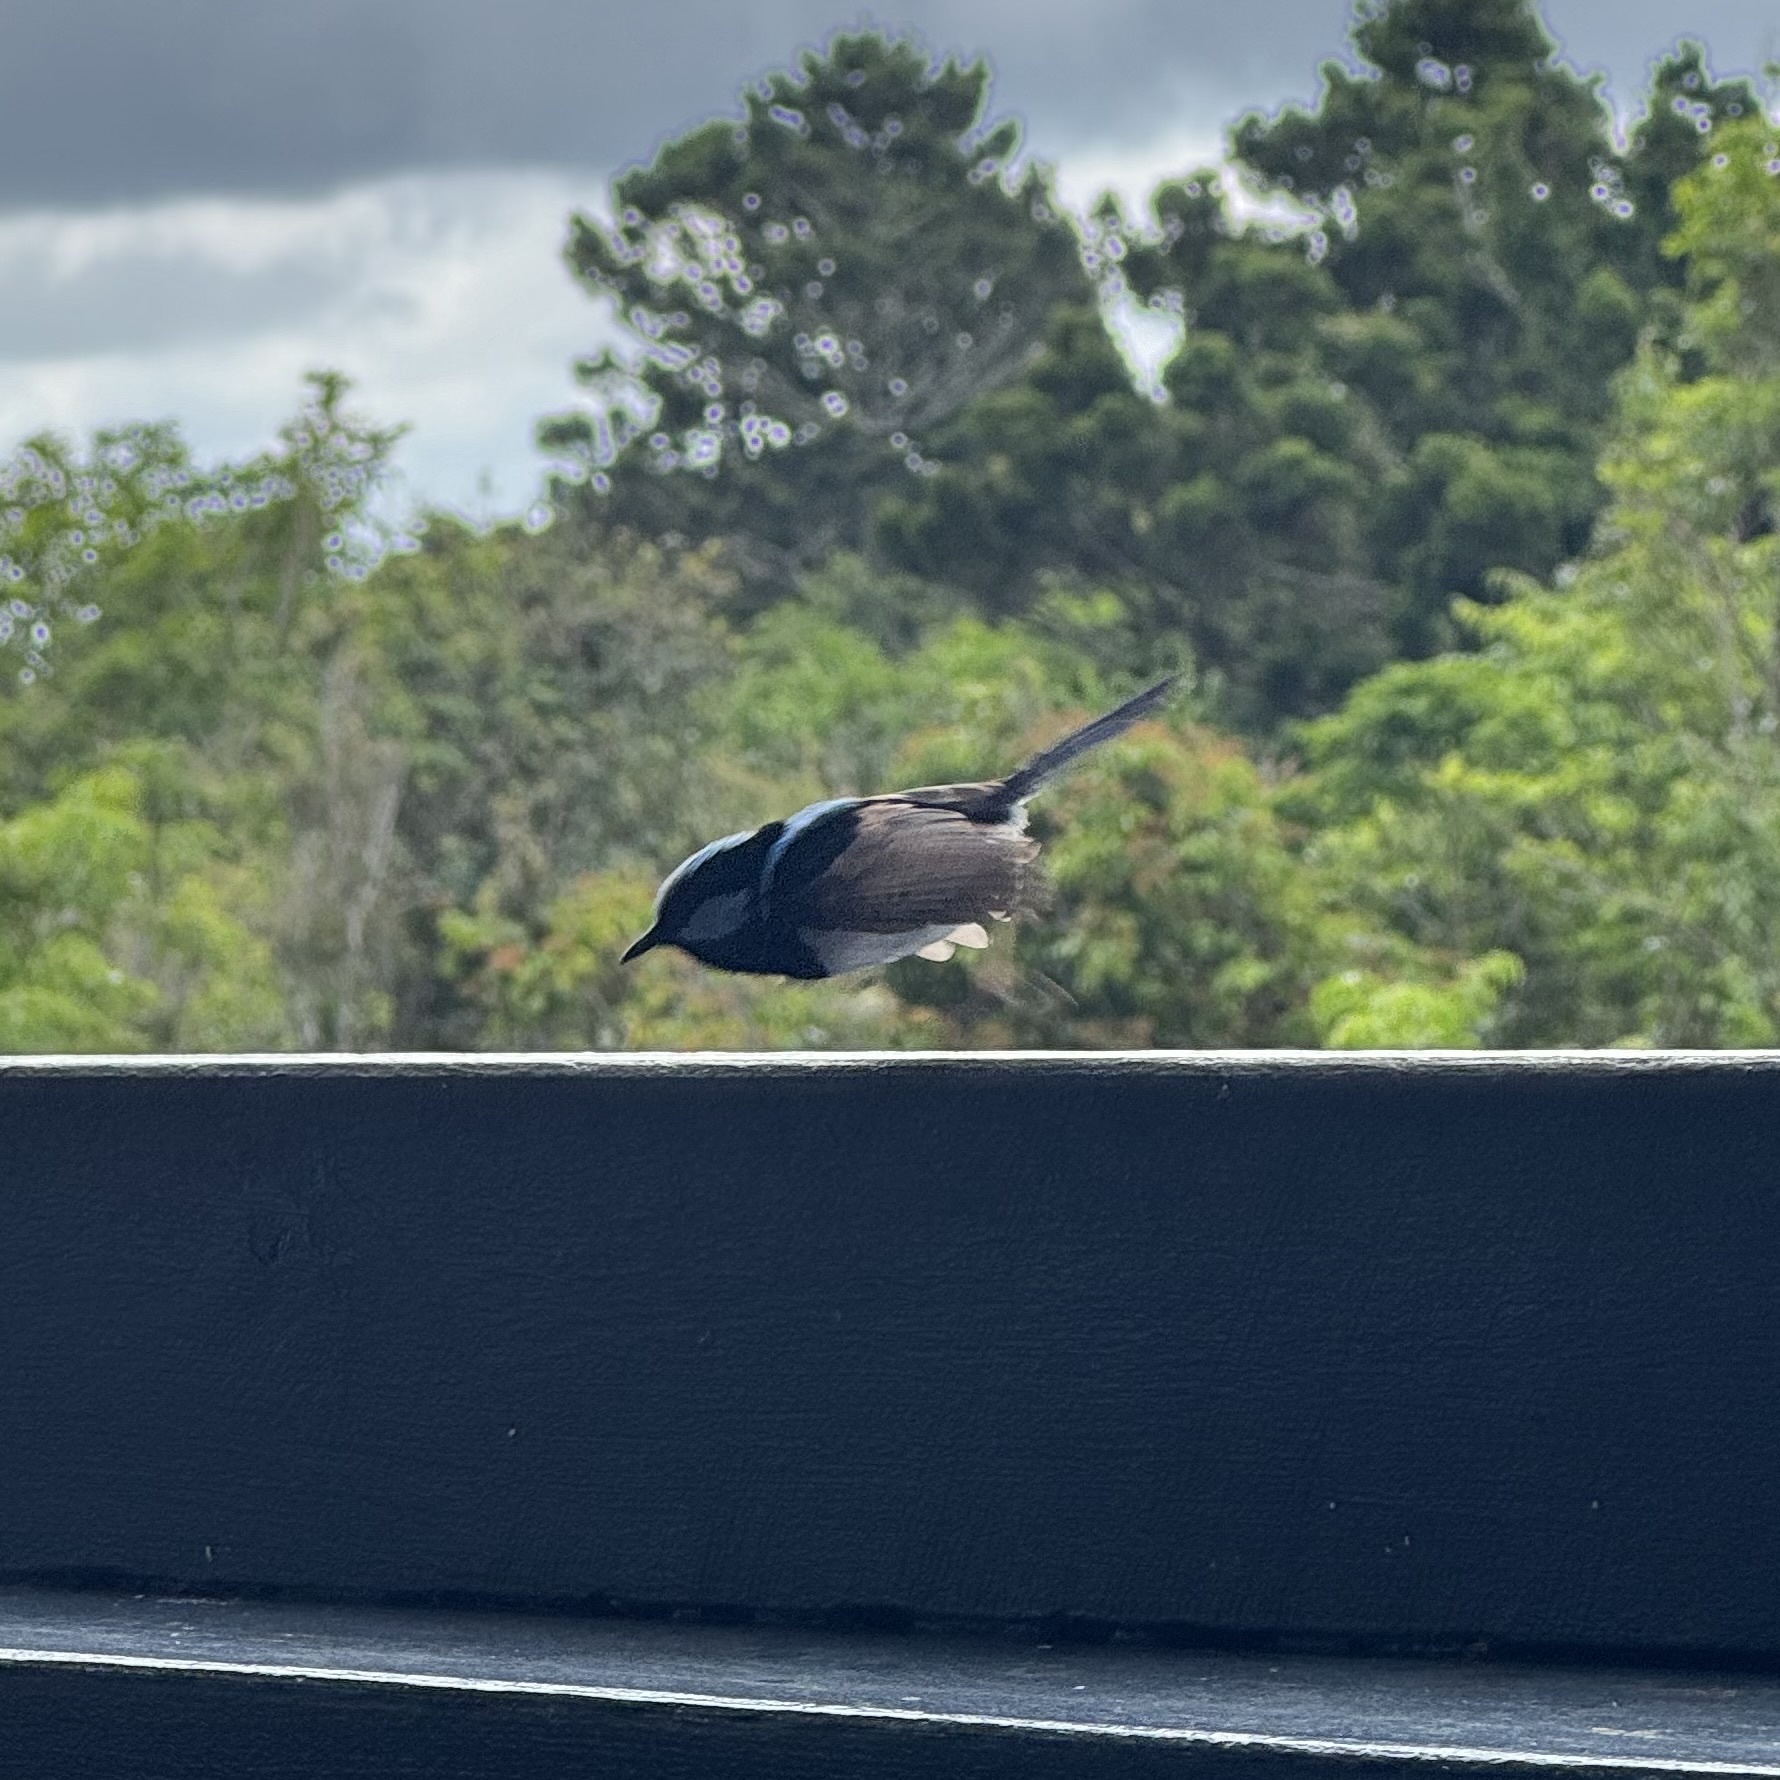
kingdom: Animalia
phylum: Chordata
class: Aves
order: Passeriformes
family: Maluridae
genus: Malurus
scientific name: Malurus cyaneus
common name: Superb fairywren
